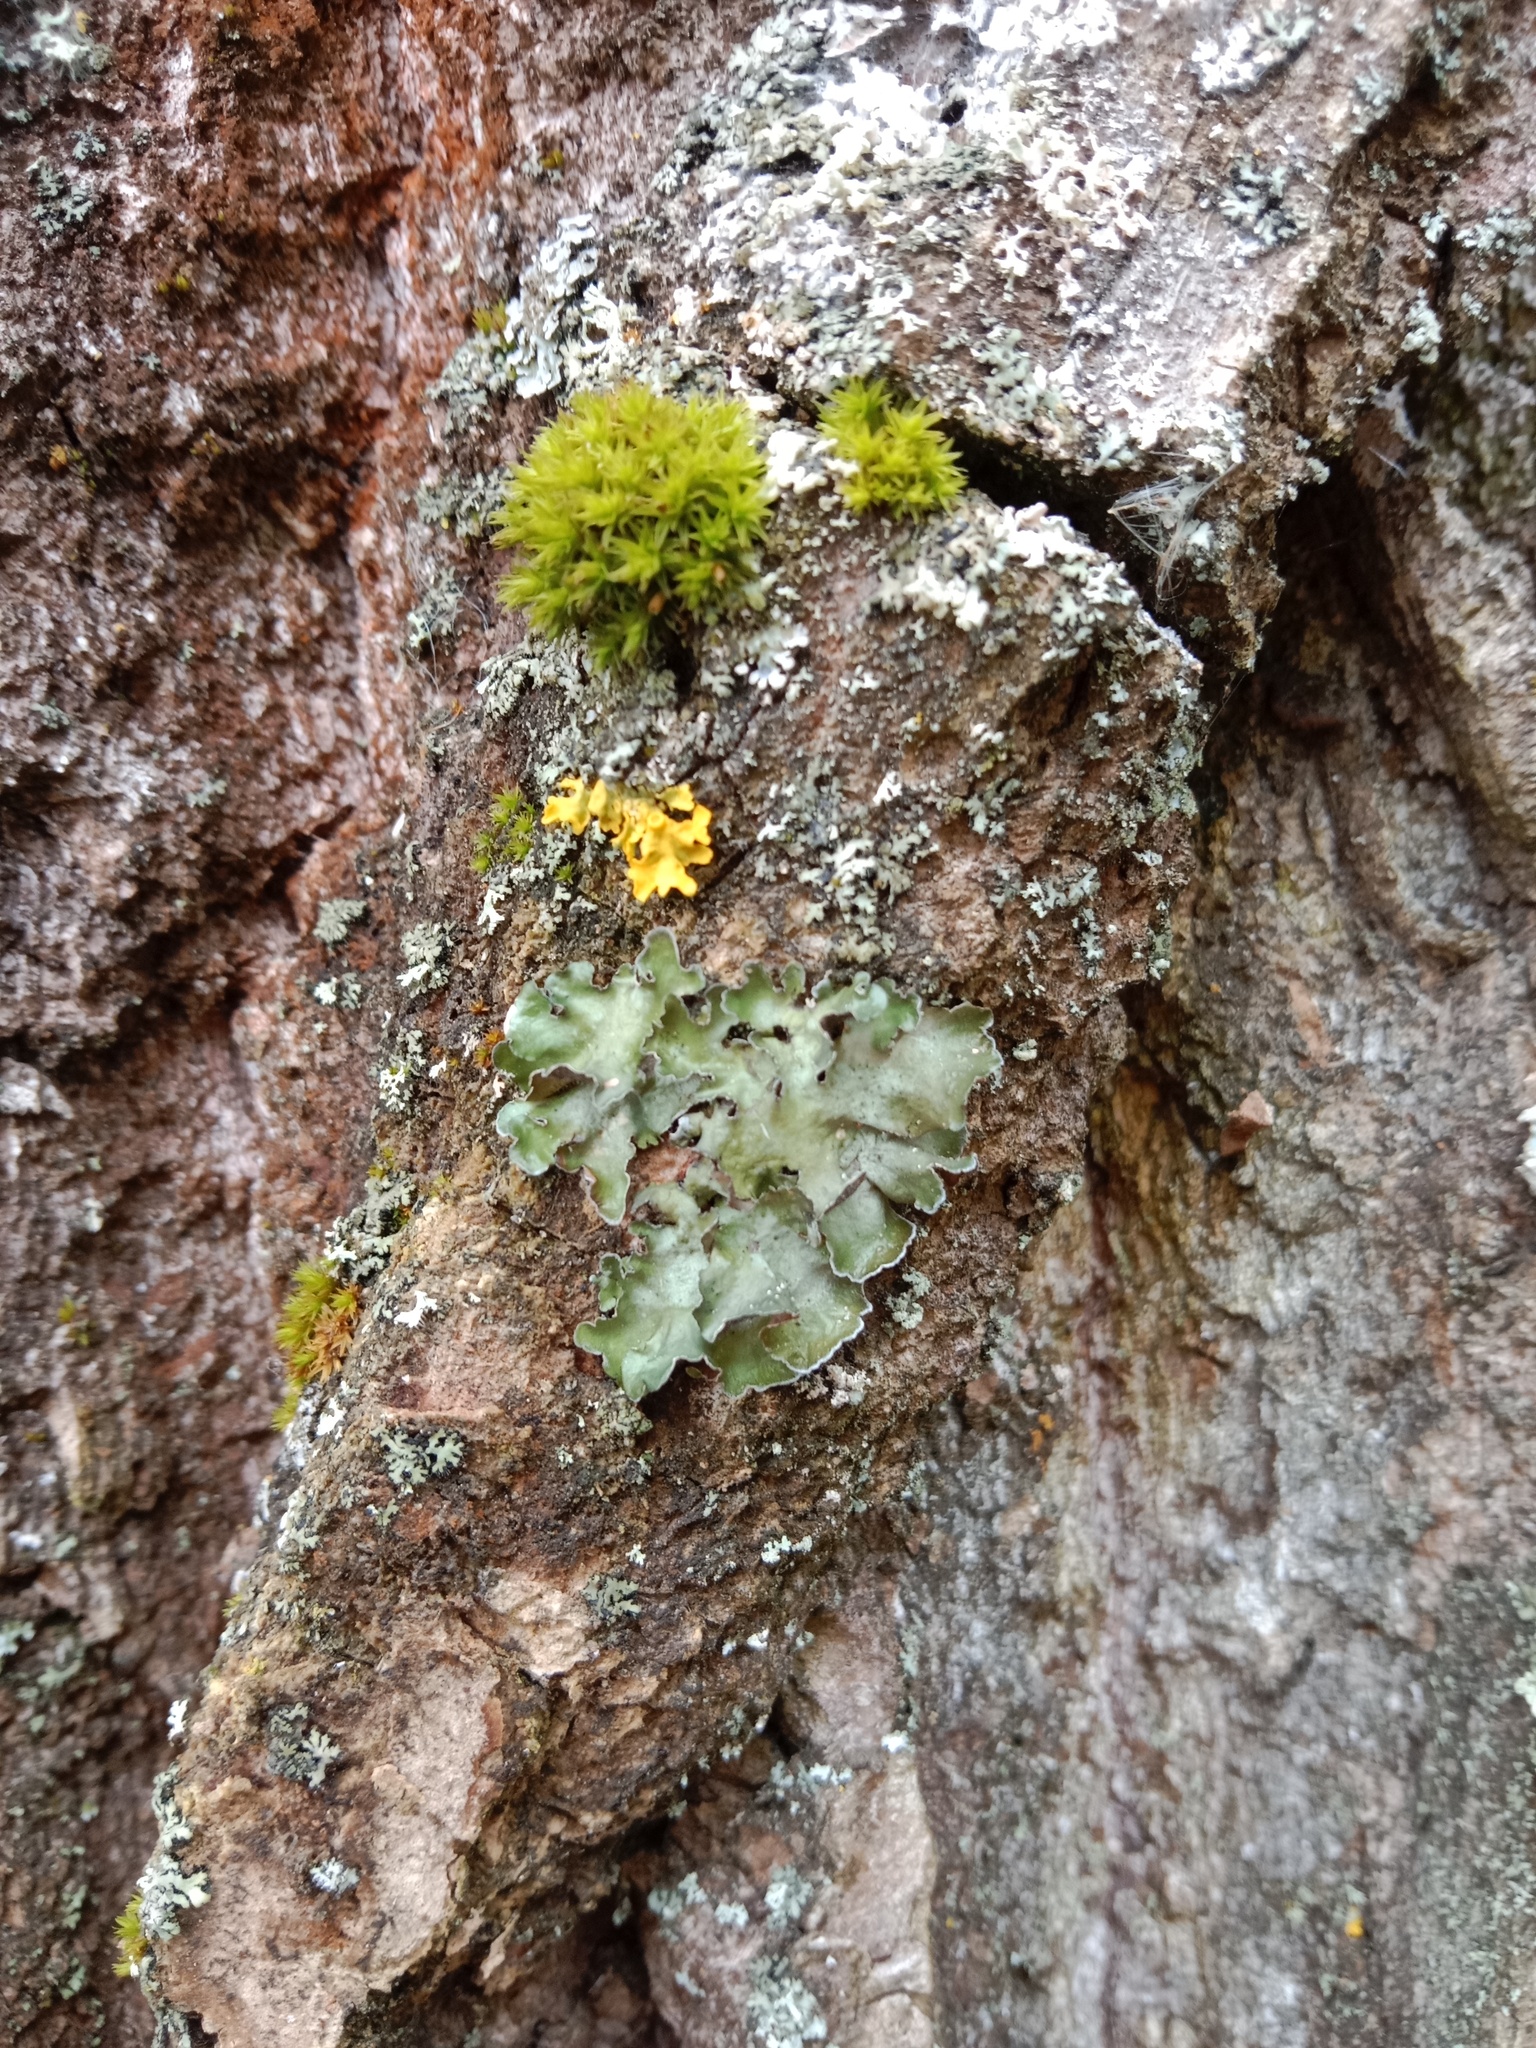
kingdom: Fungi
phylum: Ascomycota
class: Lecanoromycetes
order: Lecanorales
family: Parmeliaceae
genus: Pleurosticta
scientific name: Pleurosticta acetabulum
